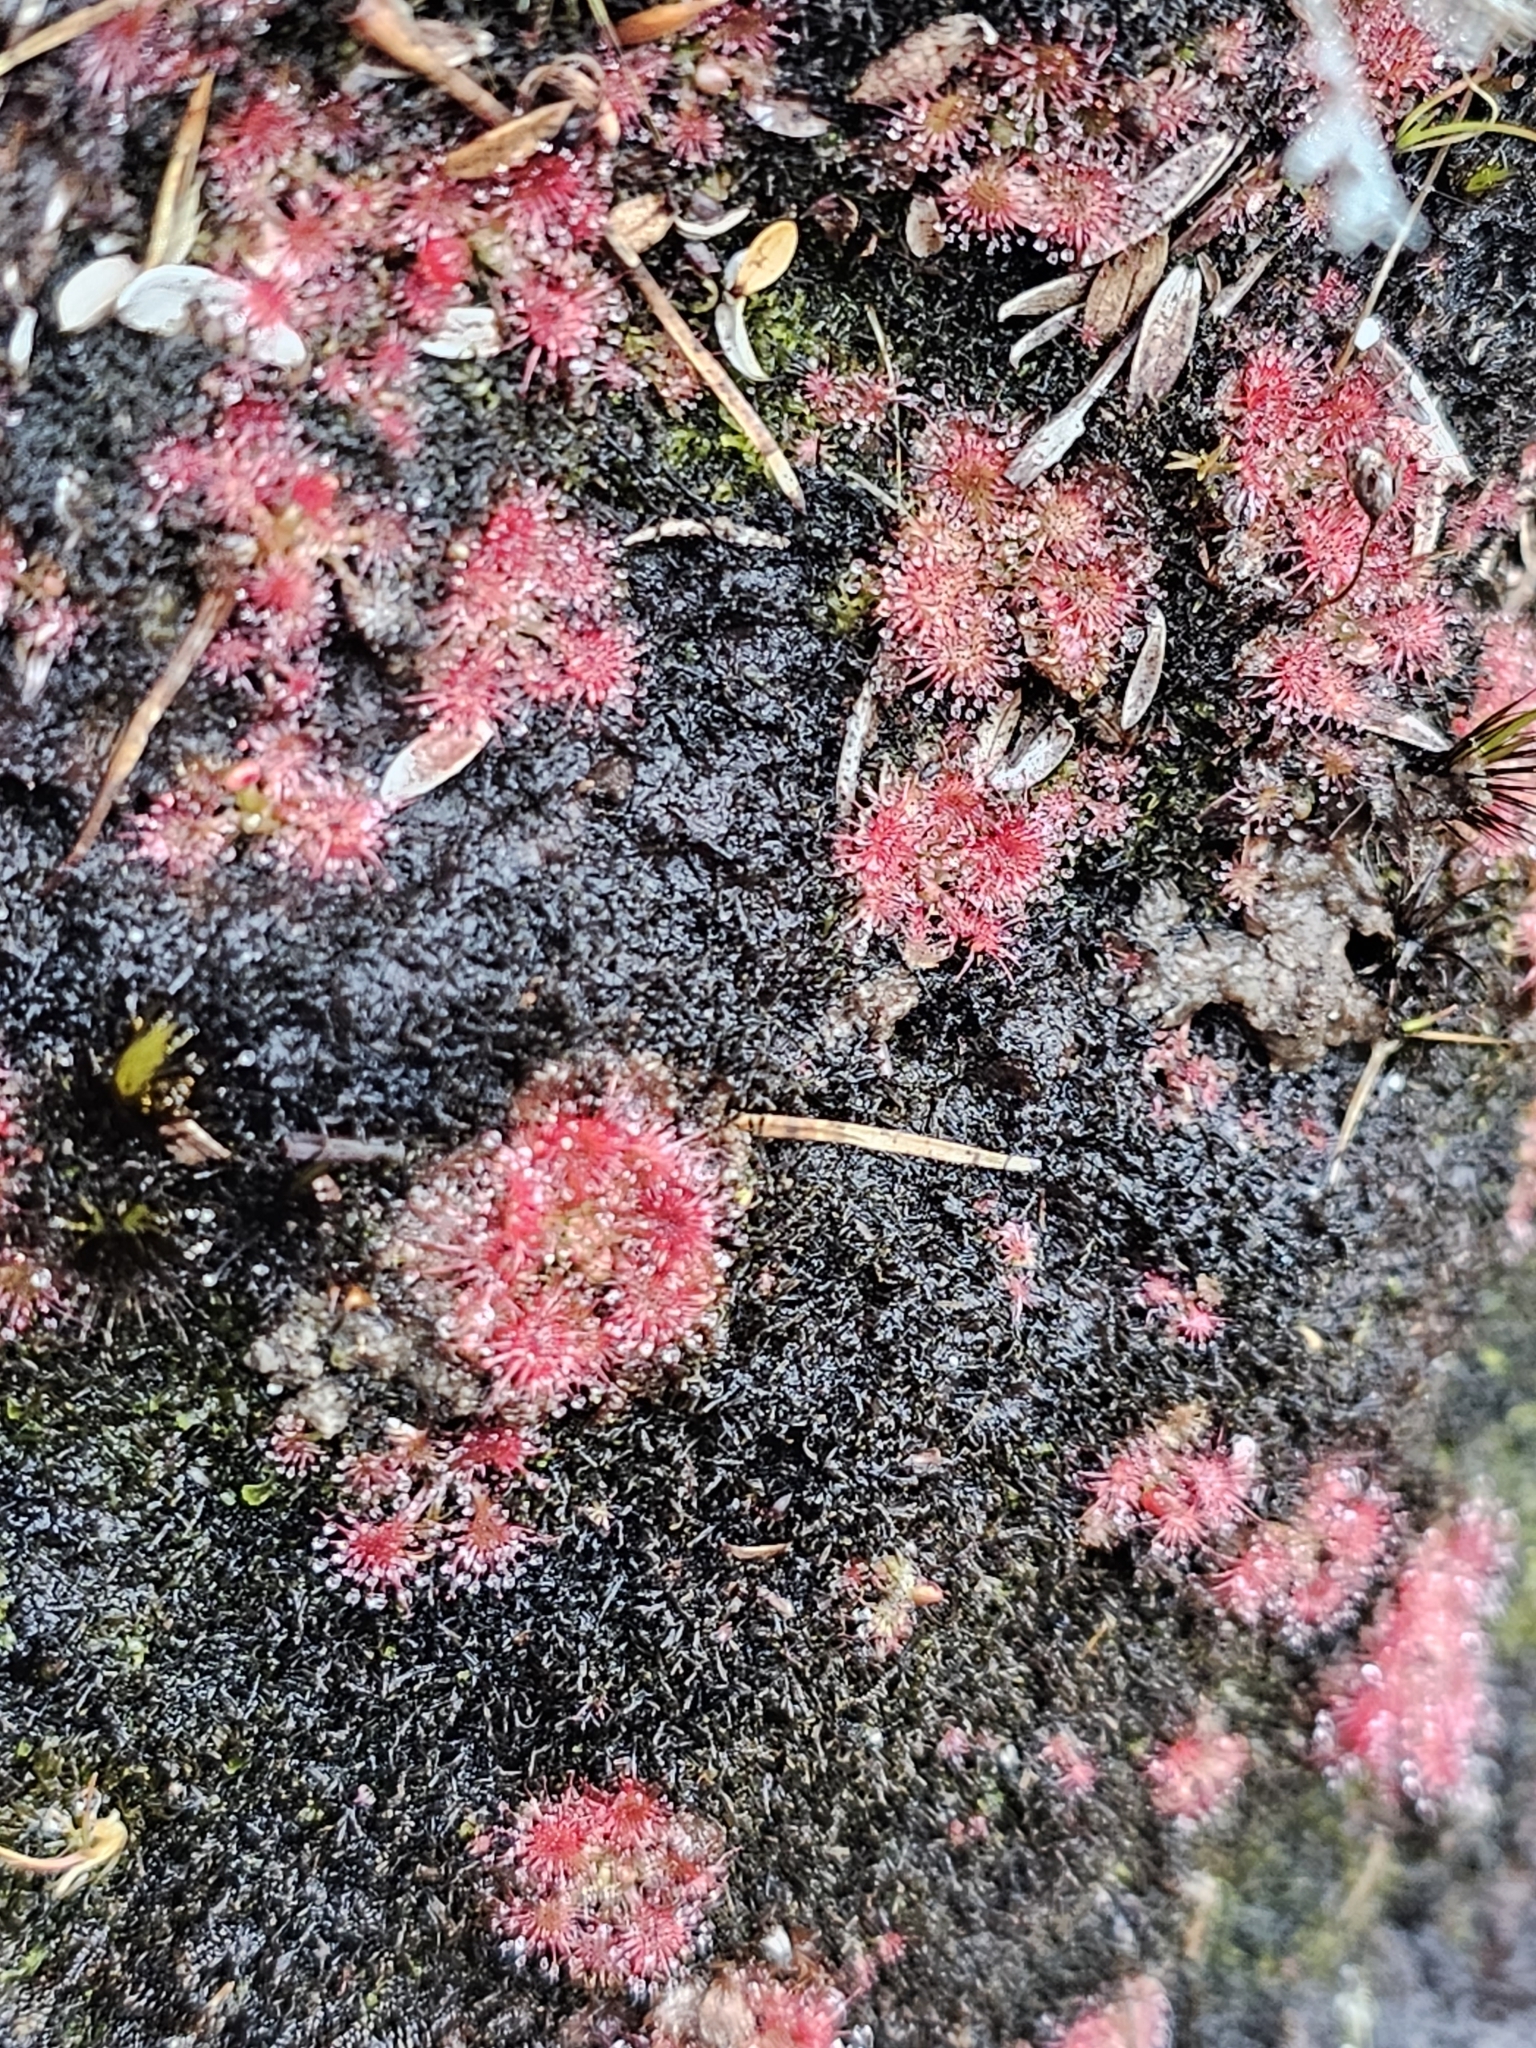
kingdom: Plantae
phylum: Tracheophyta
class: Magnoliopsida
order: Caryophyllales
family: Droseraceae
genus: Drosera
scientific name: Drosera spatulata
